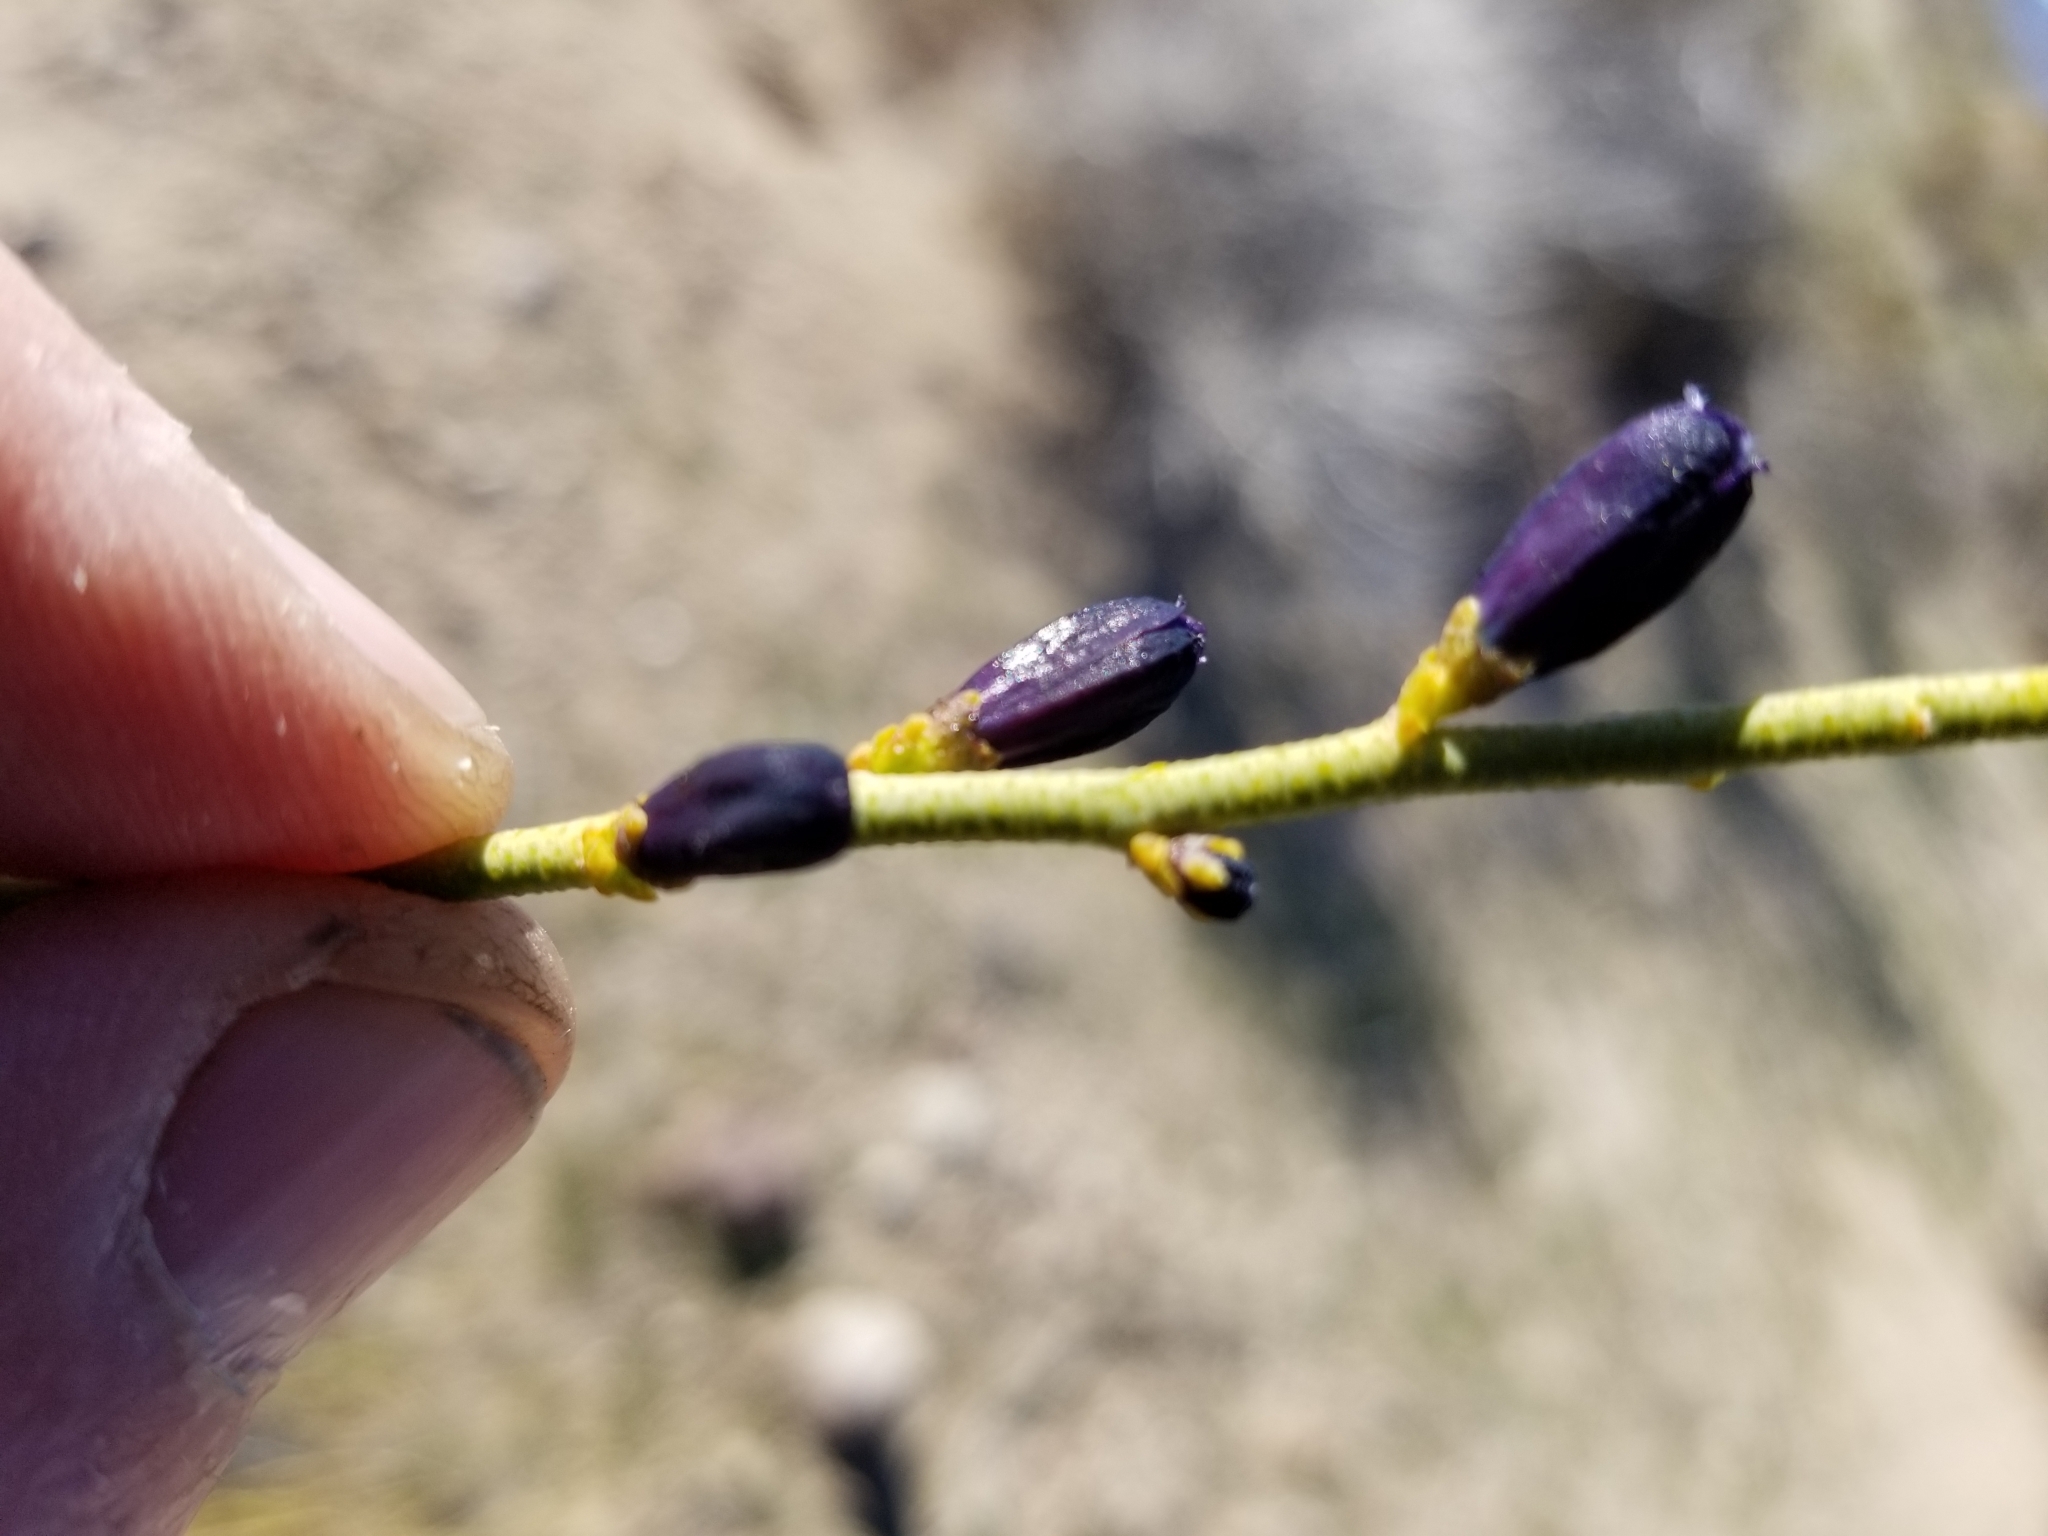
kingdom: Plantae
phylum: Tracheophyta
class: Magnoliopsida
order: Sapindales
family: Rutaceae
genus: Thamnosma
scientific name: Thamnosma montana
